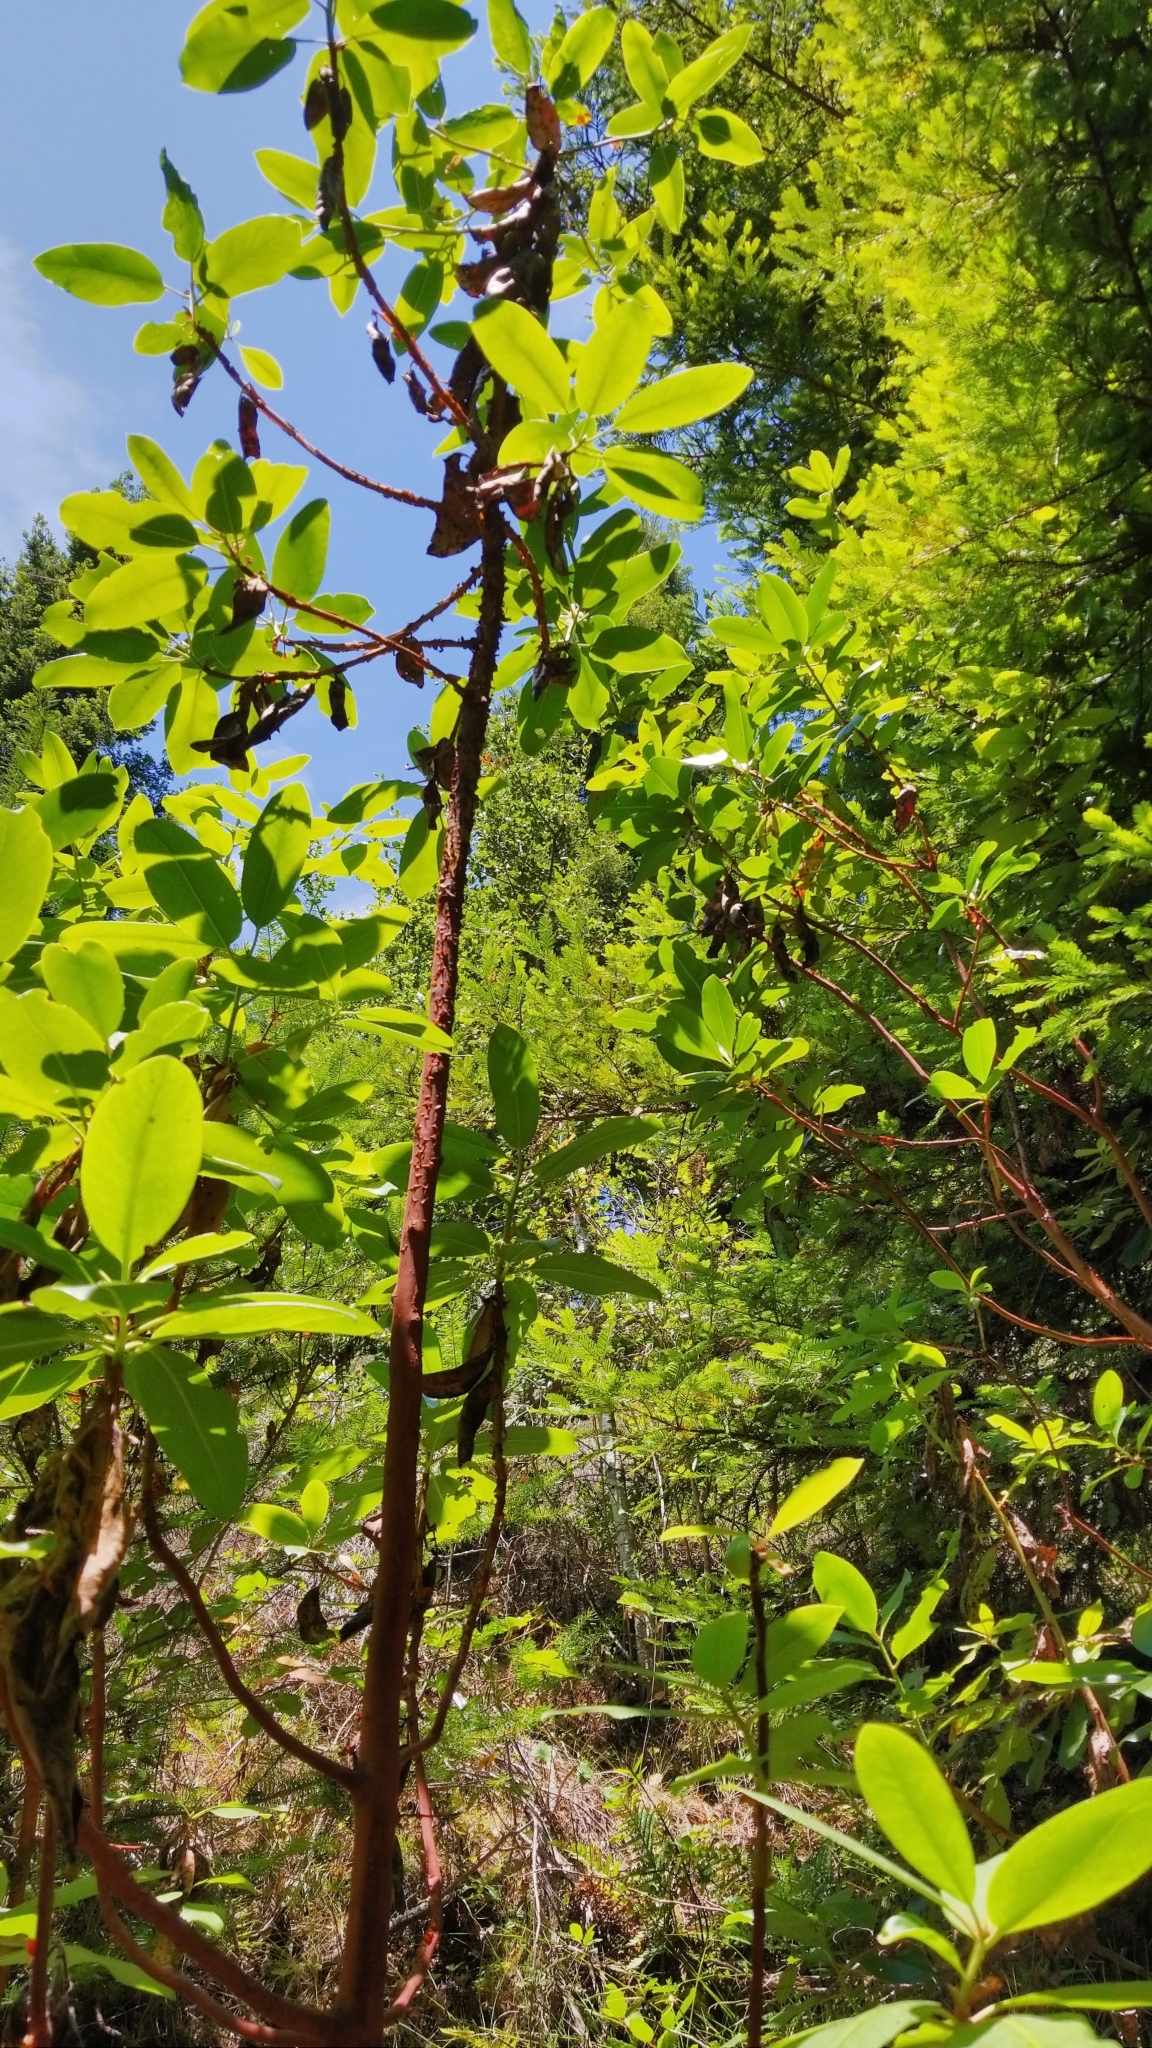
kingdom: Plantae
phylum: Tracheophyta
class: Magnoliopsida
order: Ericales
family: Ericaceae
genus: Arbutus
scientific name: Arbutus menziesii
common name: Pacific madrone
